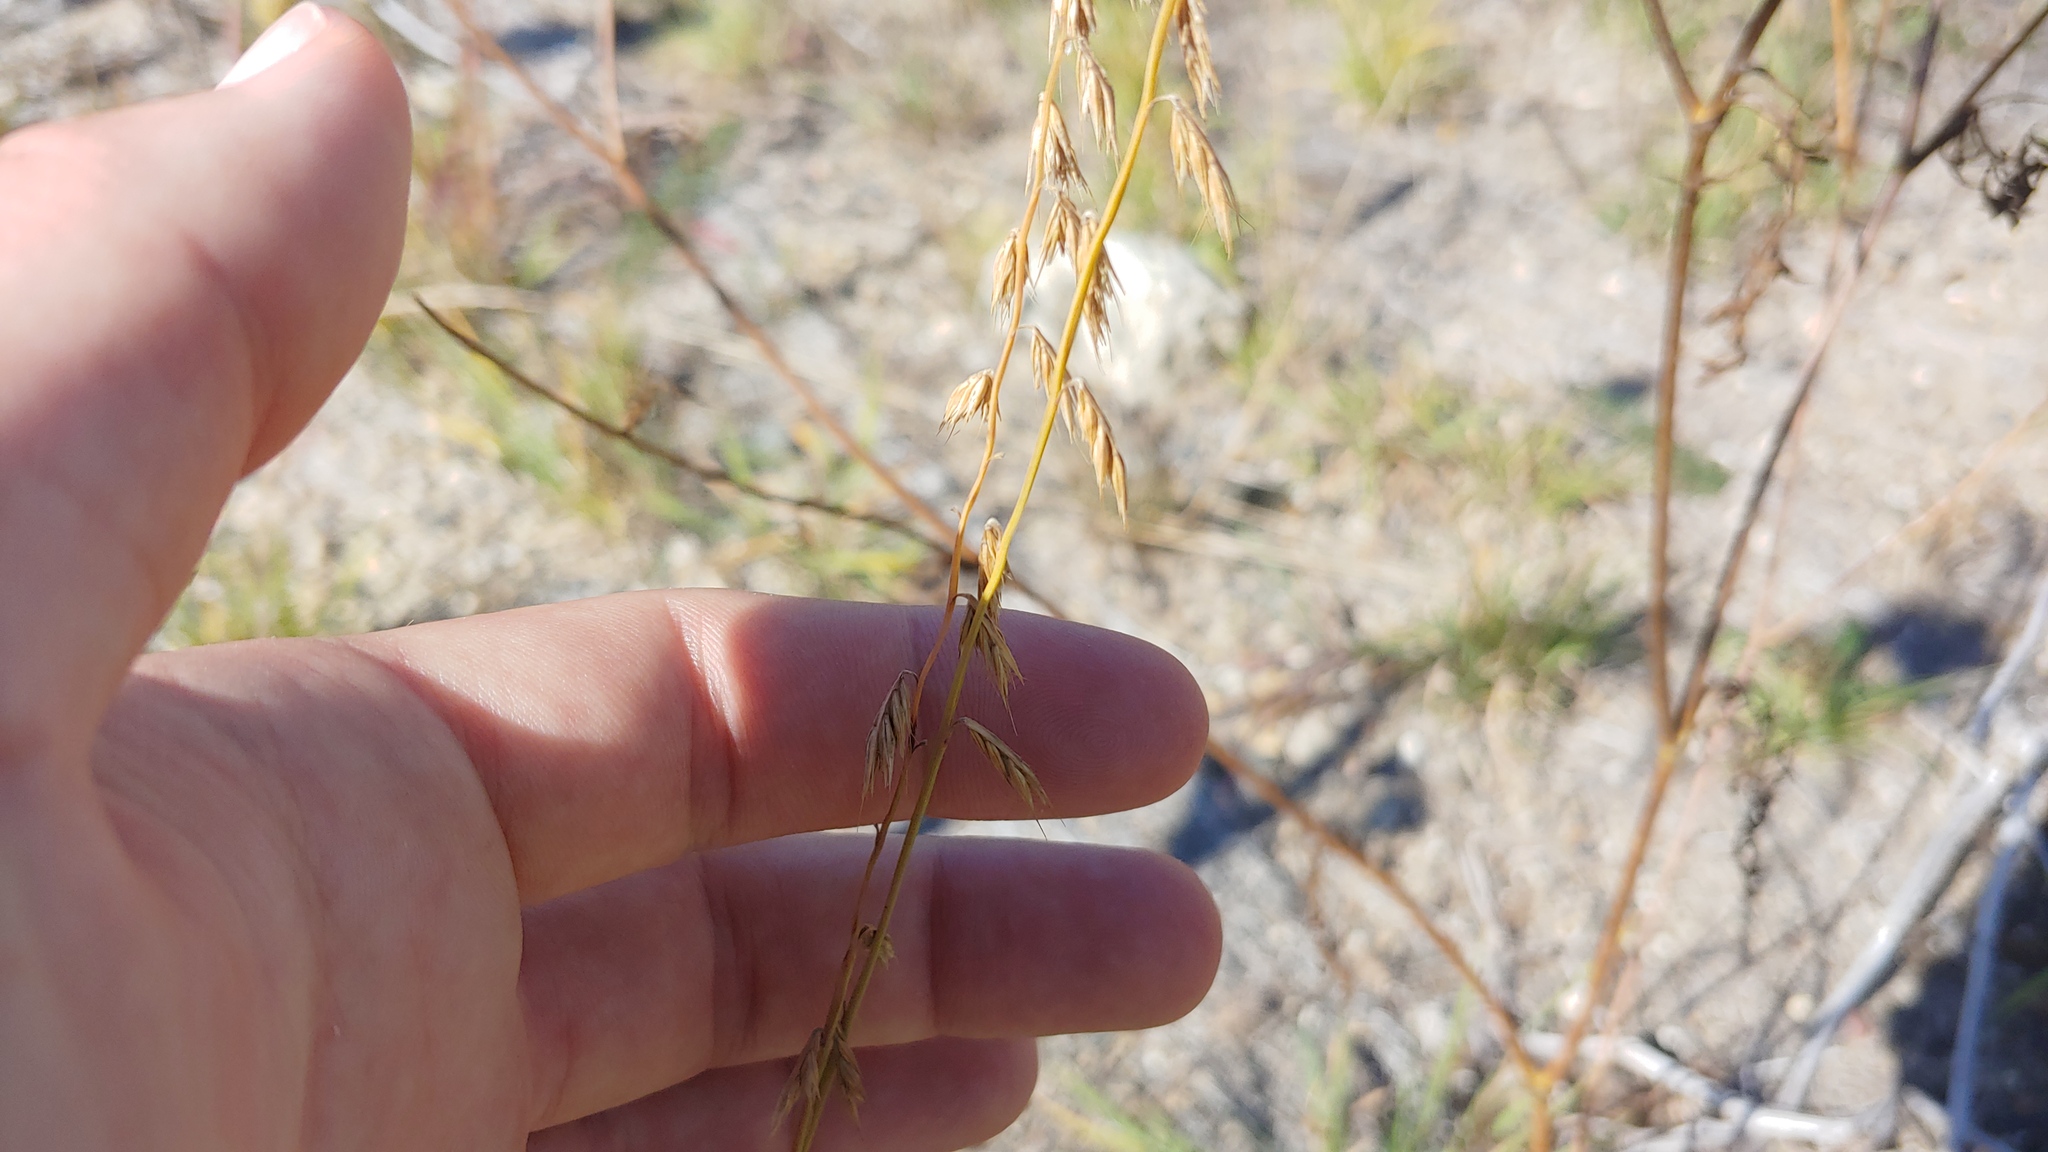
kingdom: Plantae
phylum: Tracheophyta
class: Liliopsida
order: Poales
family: Poaceae
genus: Bouteloua
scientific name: Bouteloua curtipendula
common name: Side-oats grama
